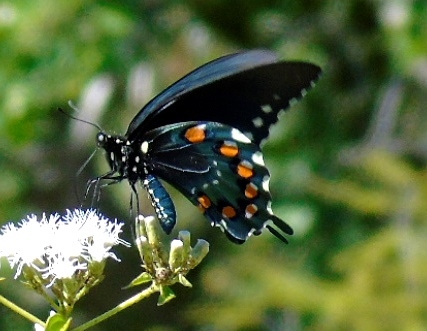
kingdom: Animalia
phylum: Arthropoda
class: Insecta
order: Lepidoptera
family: Papilionidae
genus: Battus
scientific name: Battus philenor
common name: Pipevine swallowtail
